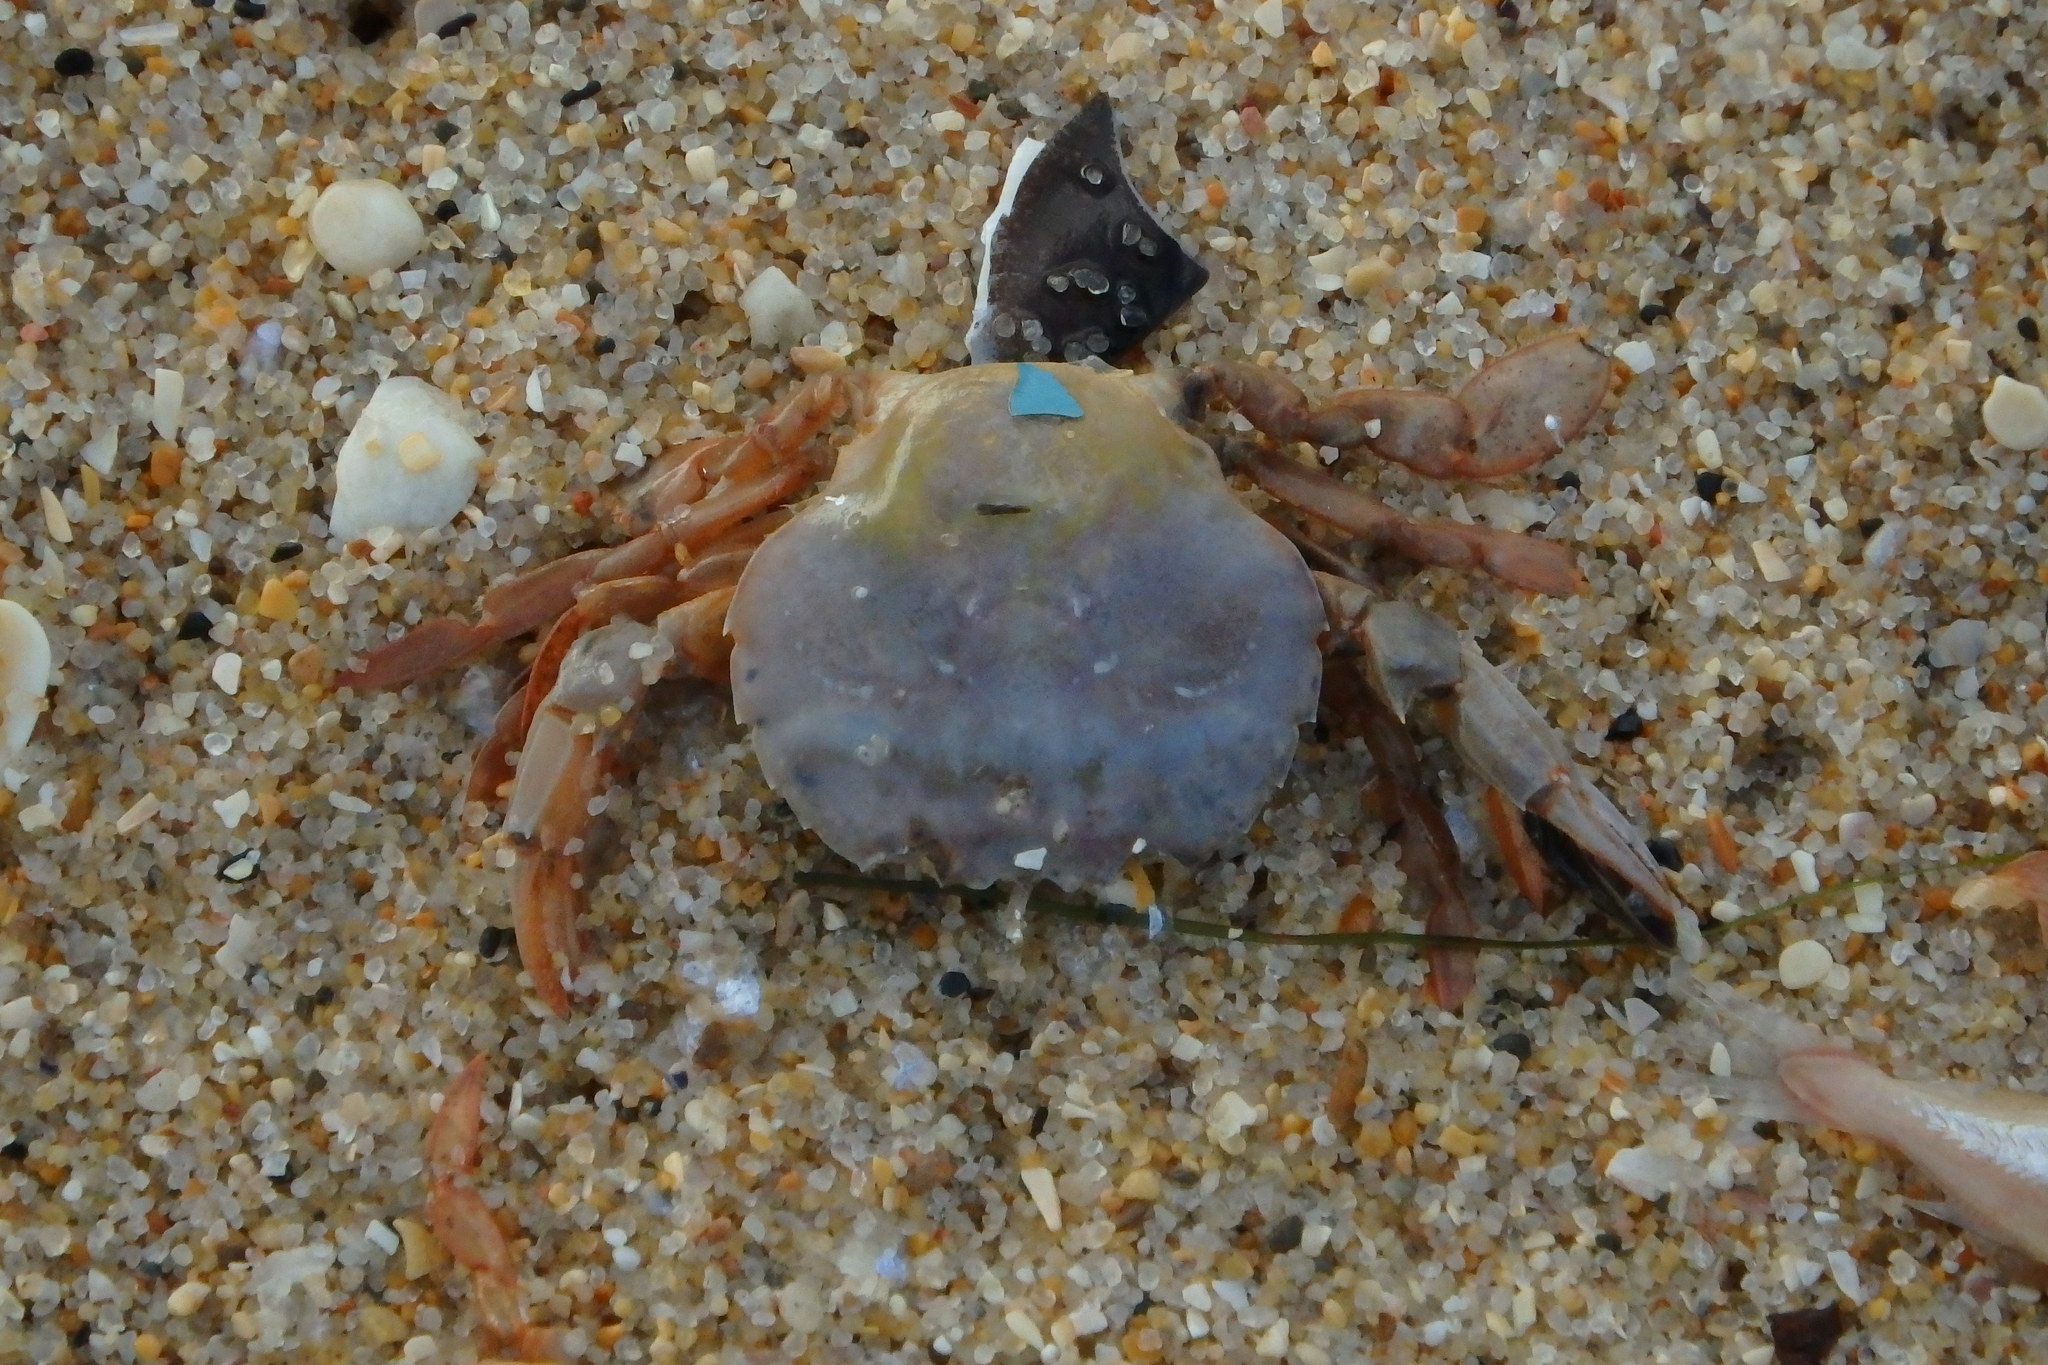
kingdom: Animalia
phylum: Arthropoda
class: Malacostraca
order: Decapoda
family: Polybiidae
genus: Polybius
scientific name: Polybius henslowii
